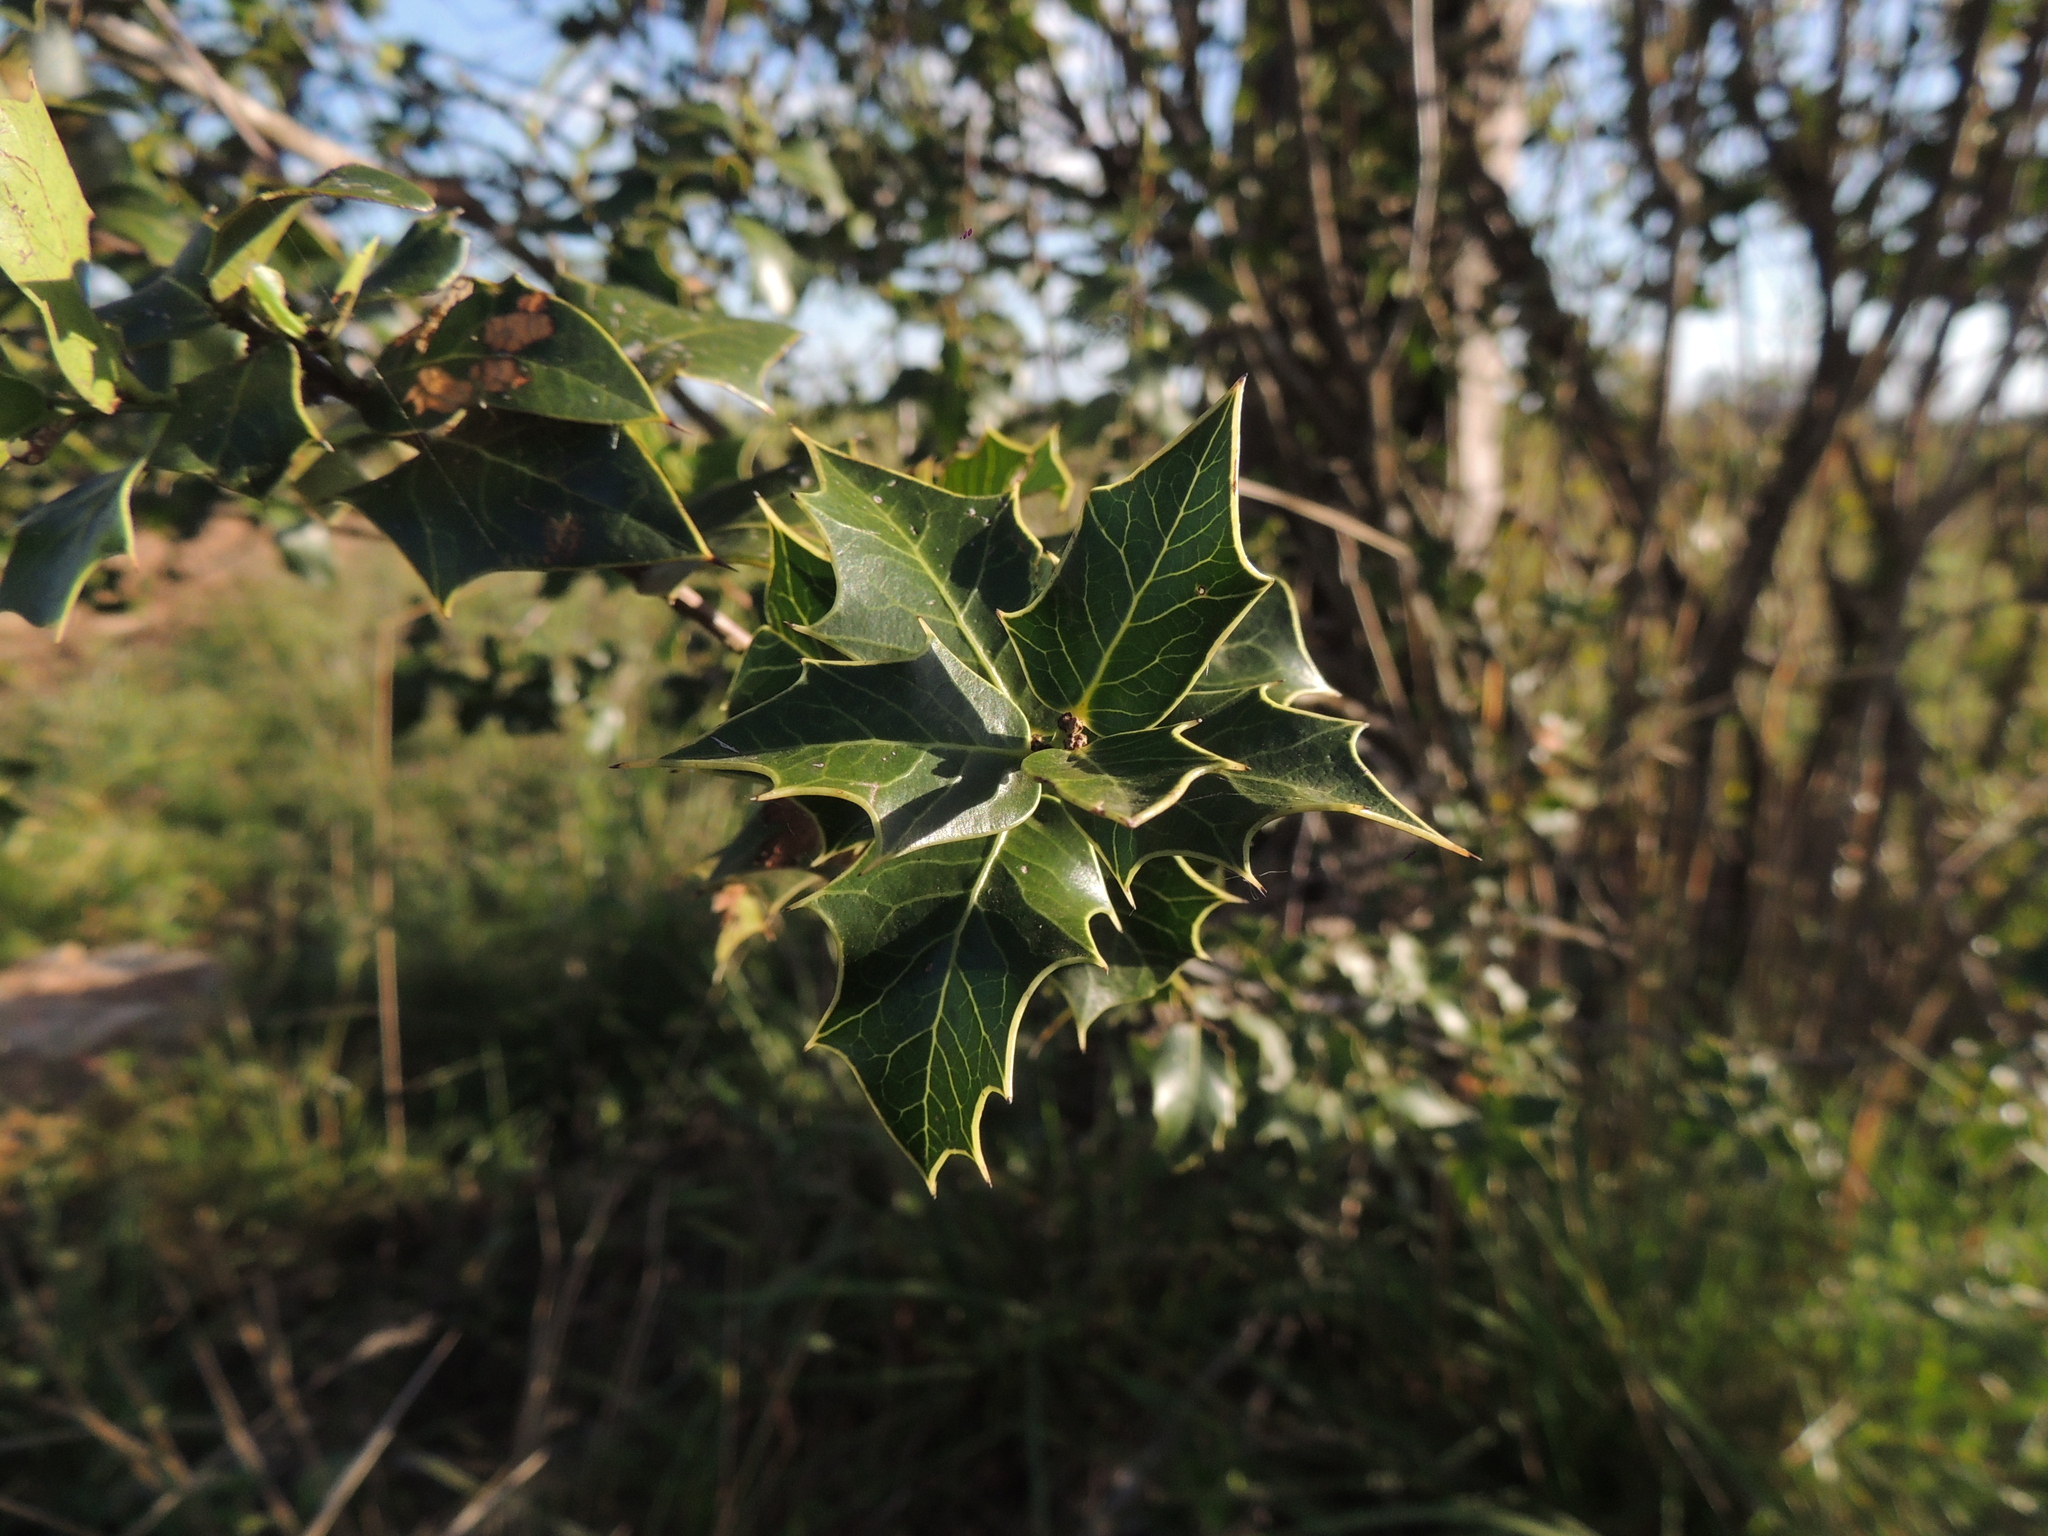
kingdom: Plantae
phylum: Tracheophyta
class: Magnoliopsida
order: Celastrales
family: Celastraceae
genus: Monteverdia
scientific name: Monteverdia
